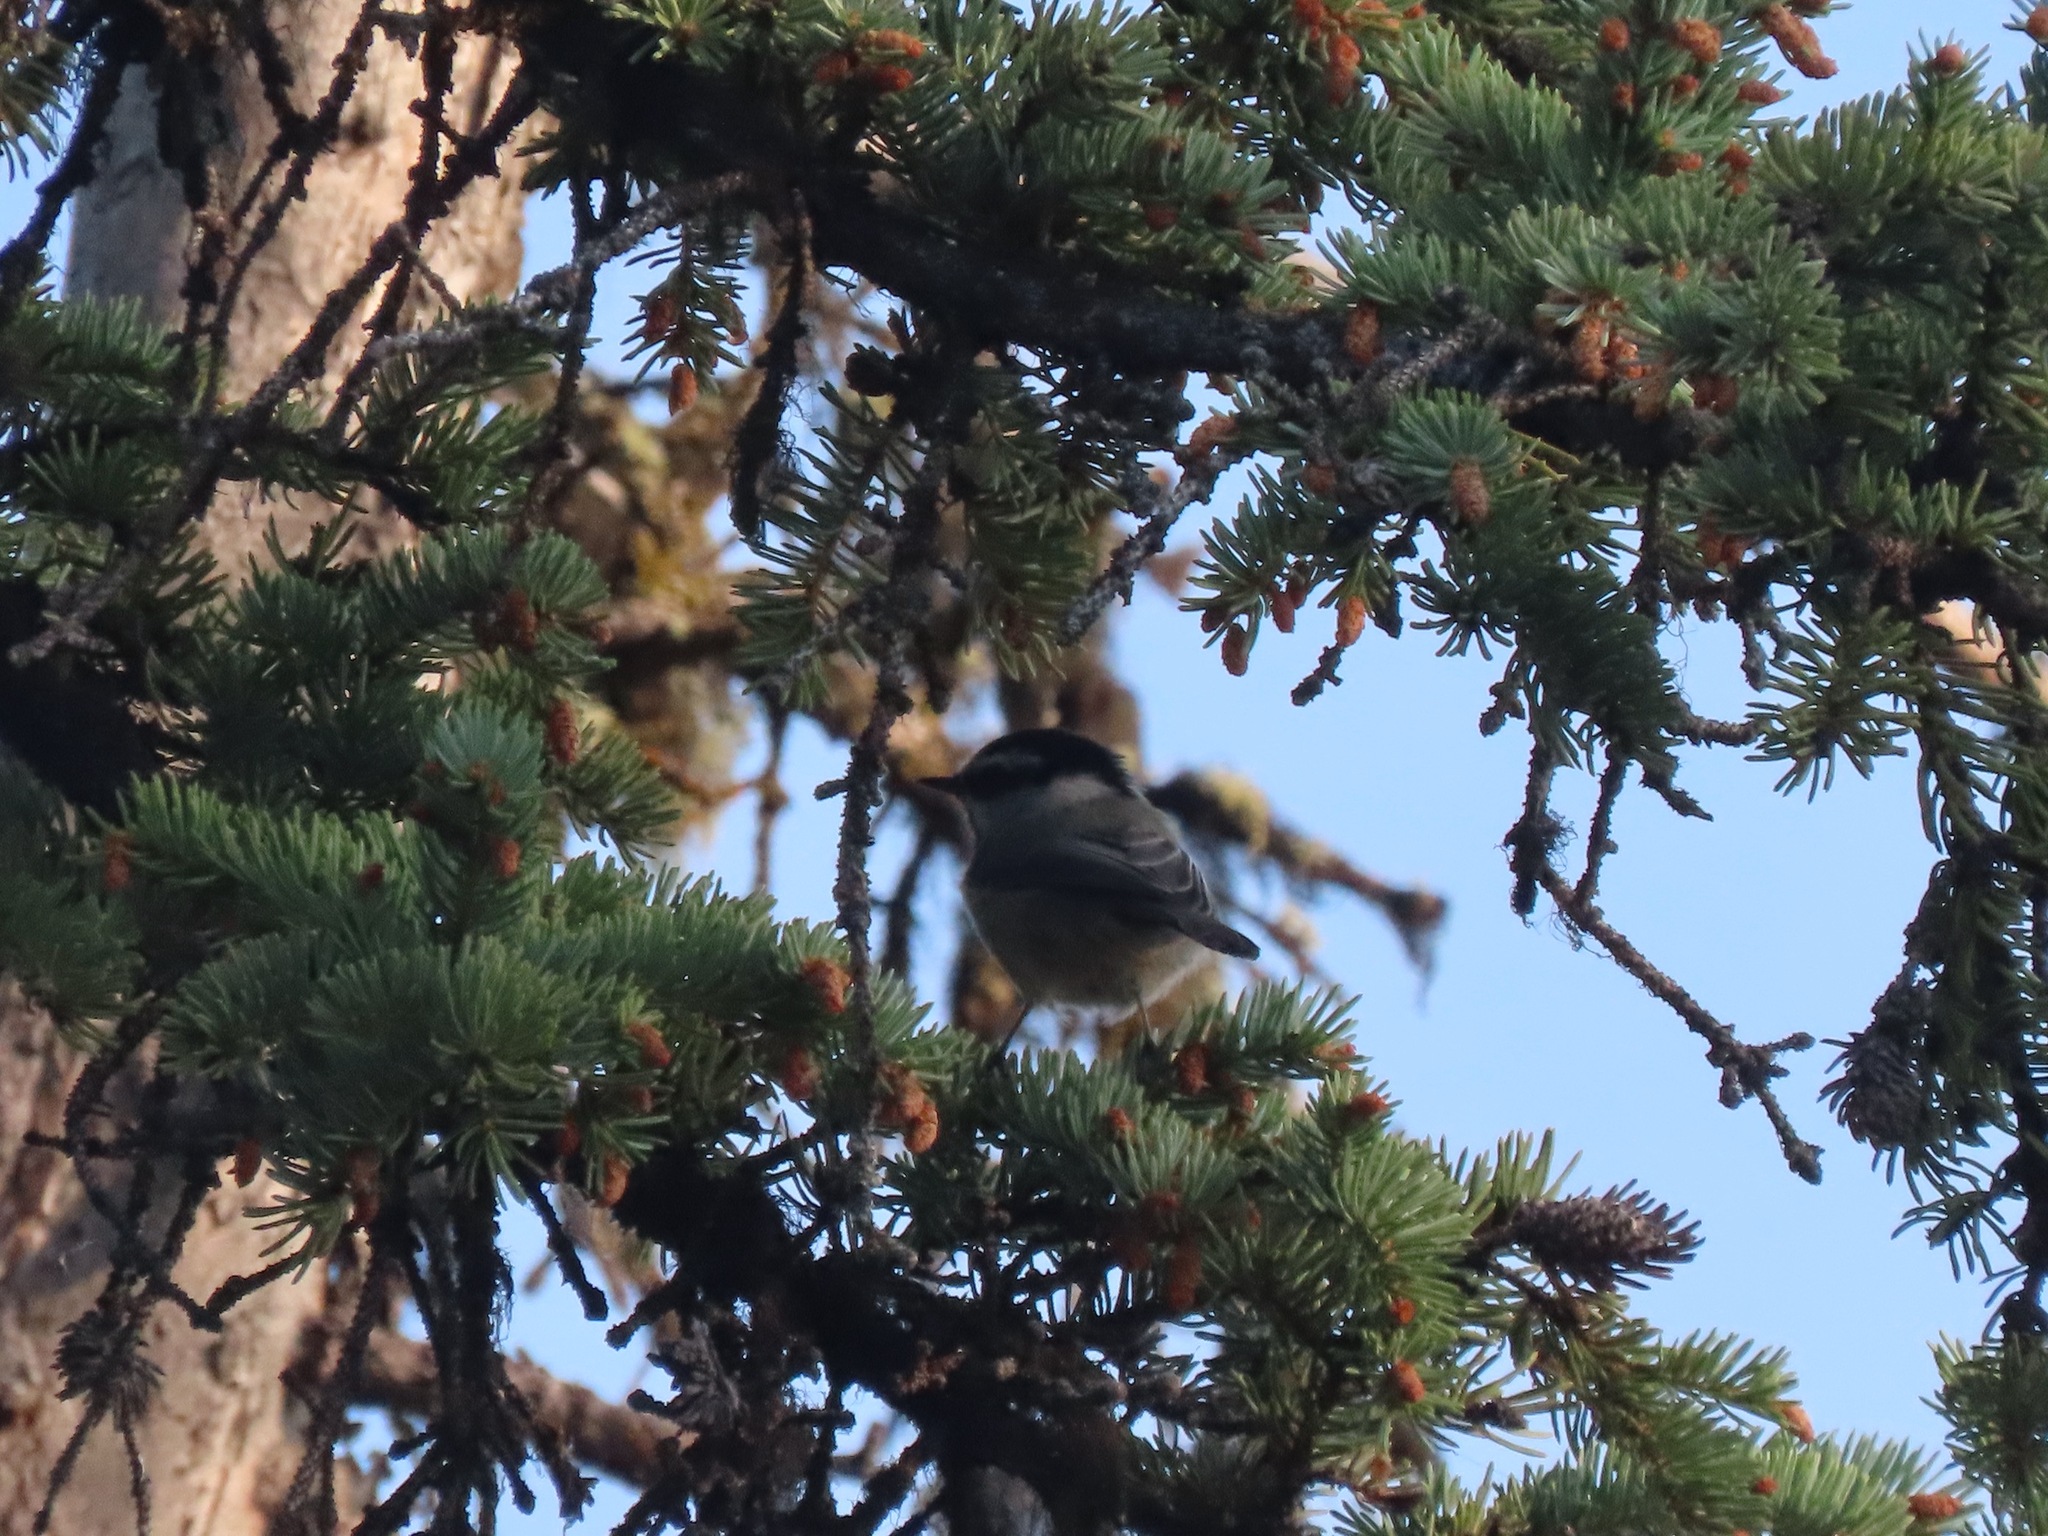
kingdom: Animalia
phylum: Chordata
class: Aves
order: Passeriformes
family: Paridae
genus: Poecile
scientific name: Poecile gambeli
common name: Mountain chickadee
